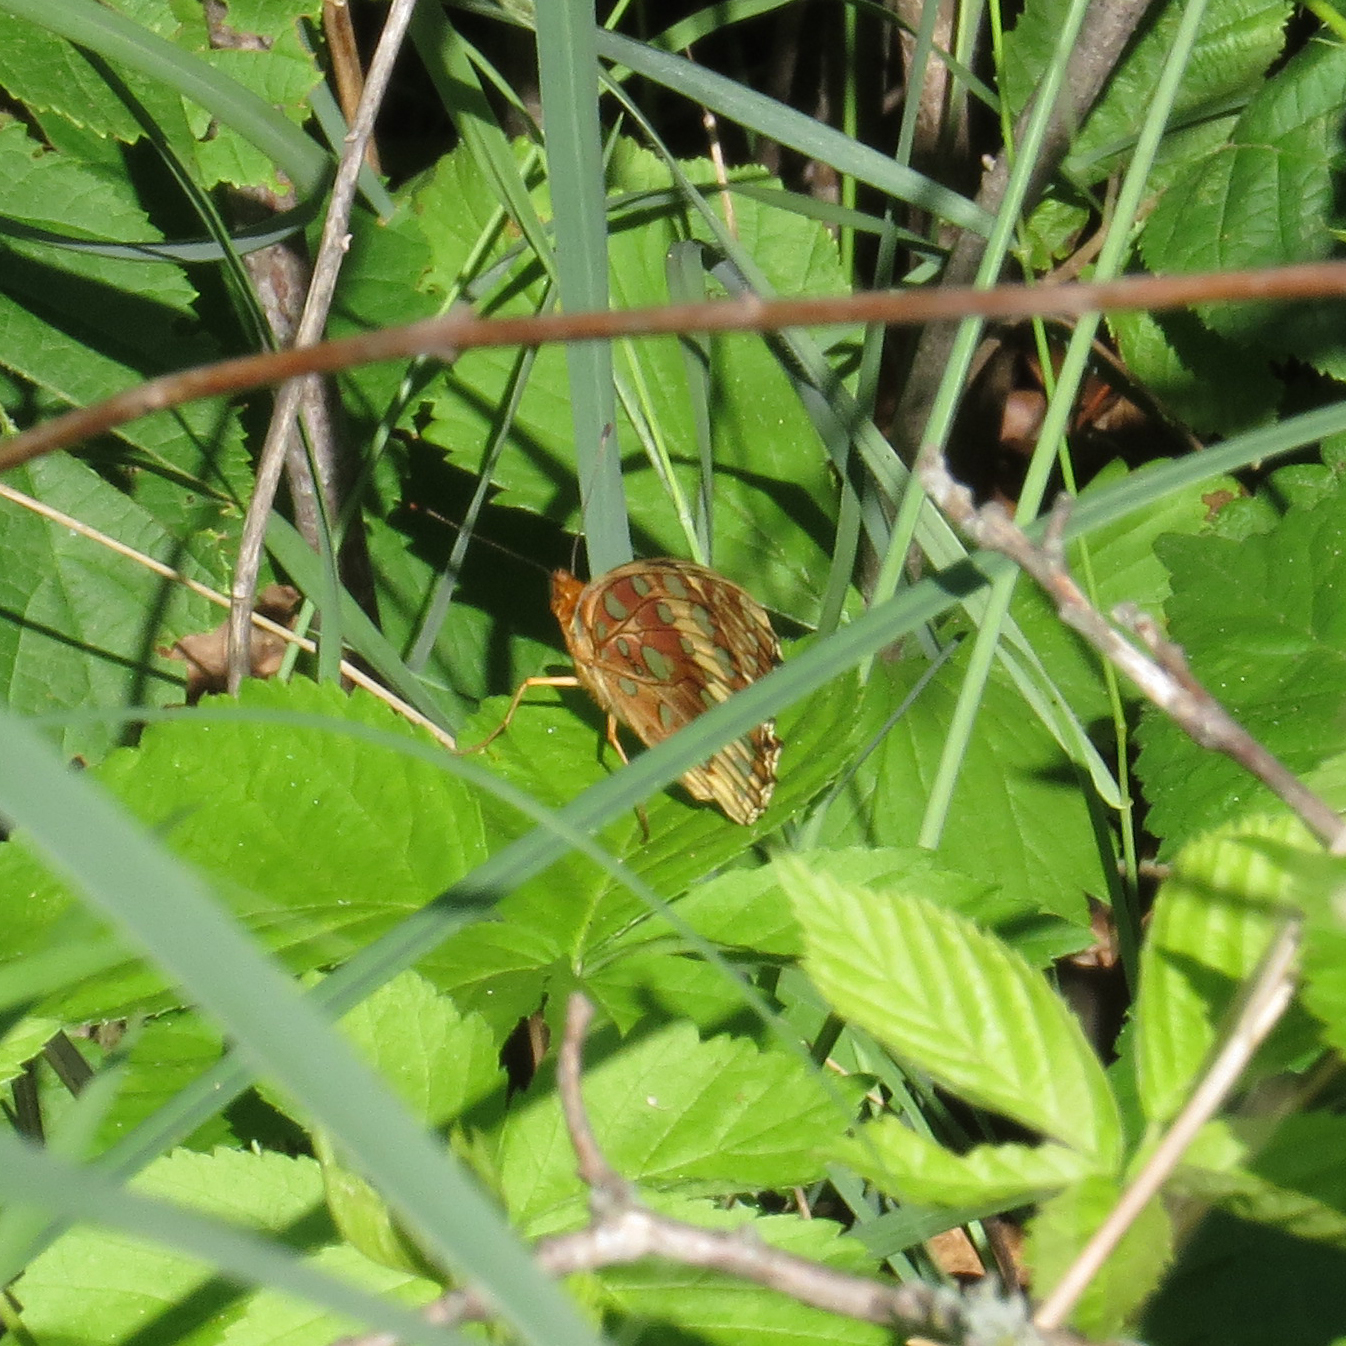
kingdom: Animalia
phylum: Arthropoda
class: Insecta
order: Lepidoptera
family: Nymphalidae
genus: Speyeria
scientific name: Speyeria cybele
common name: Great spangled fritillary
